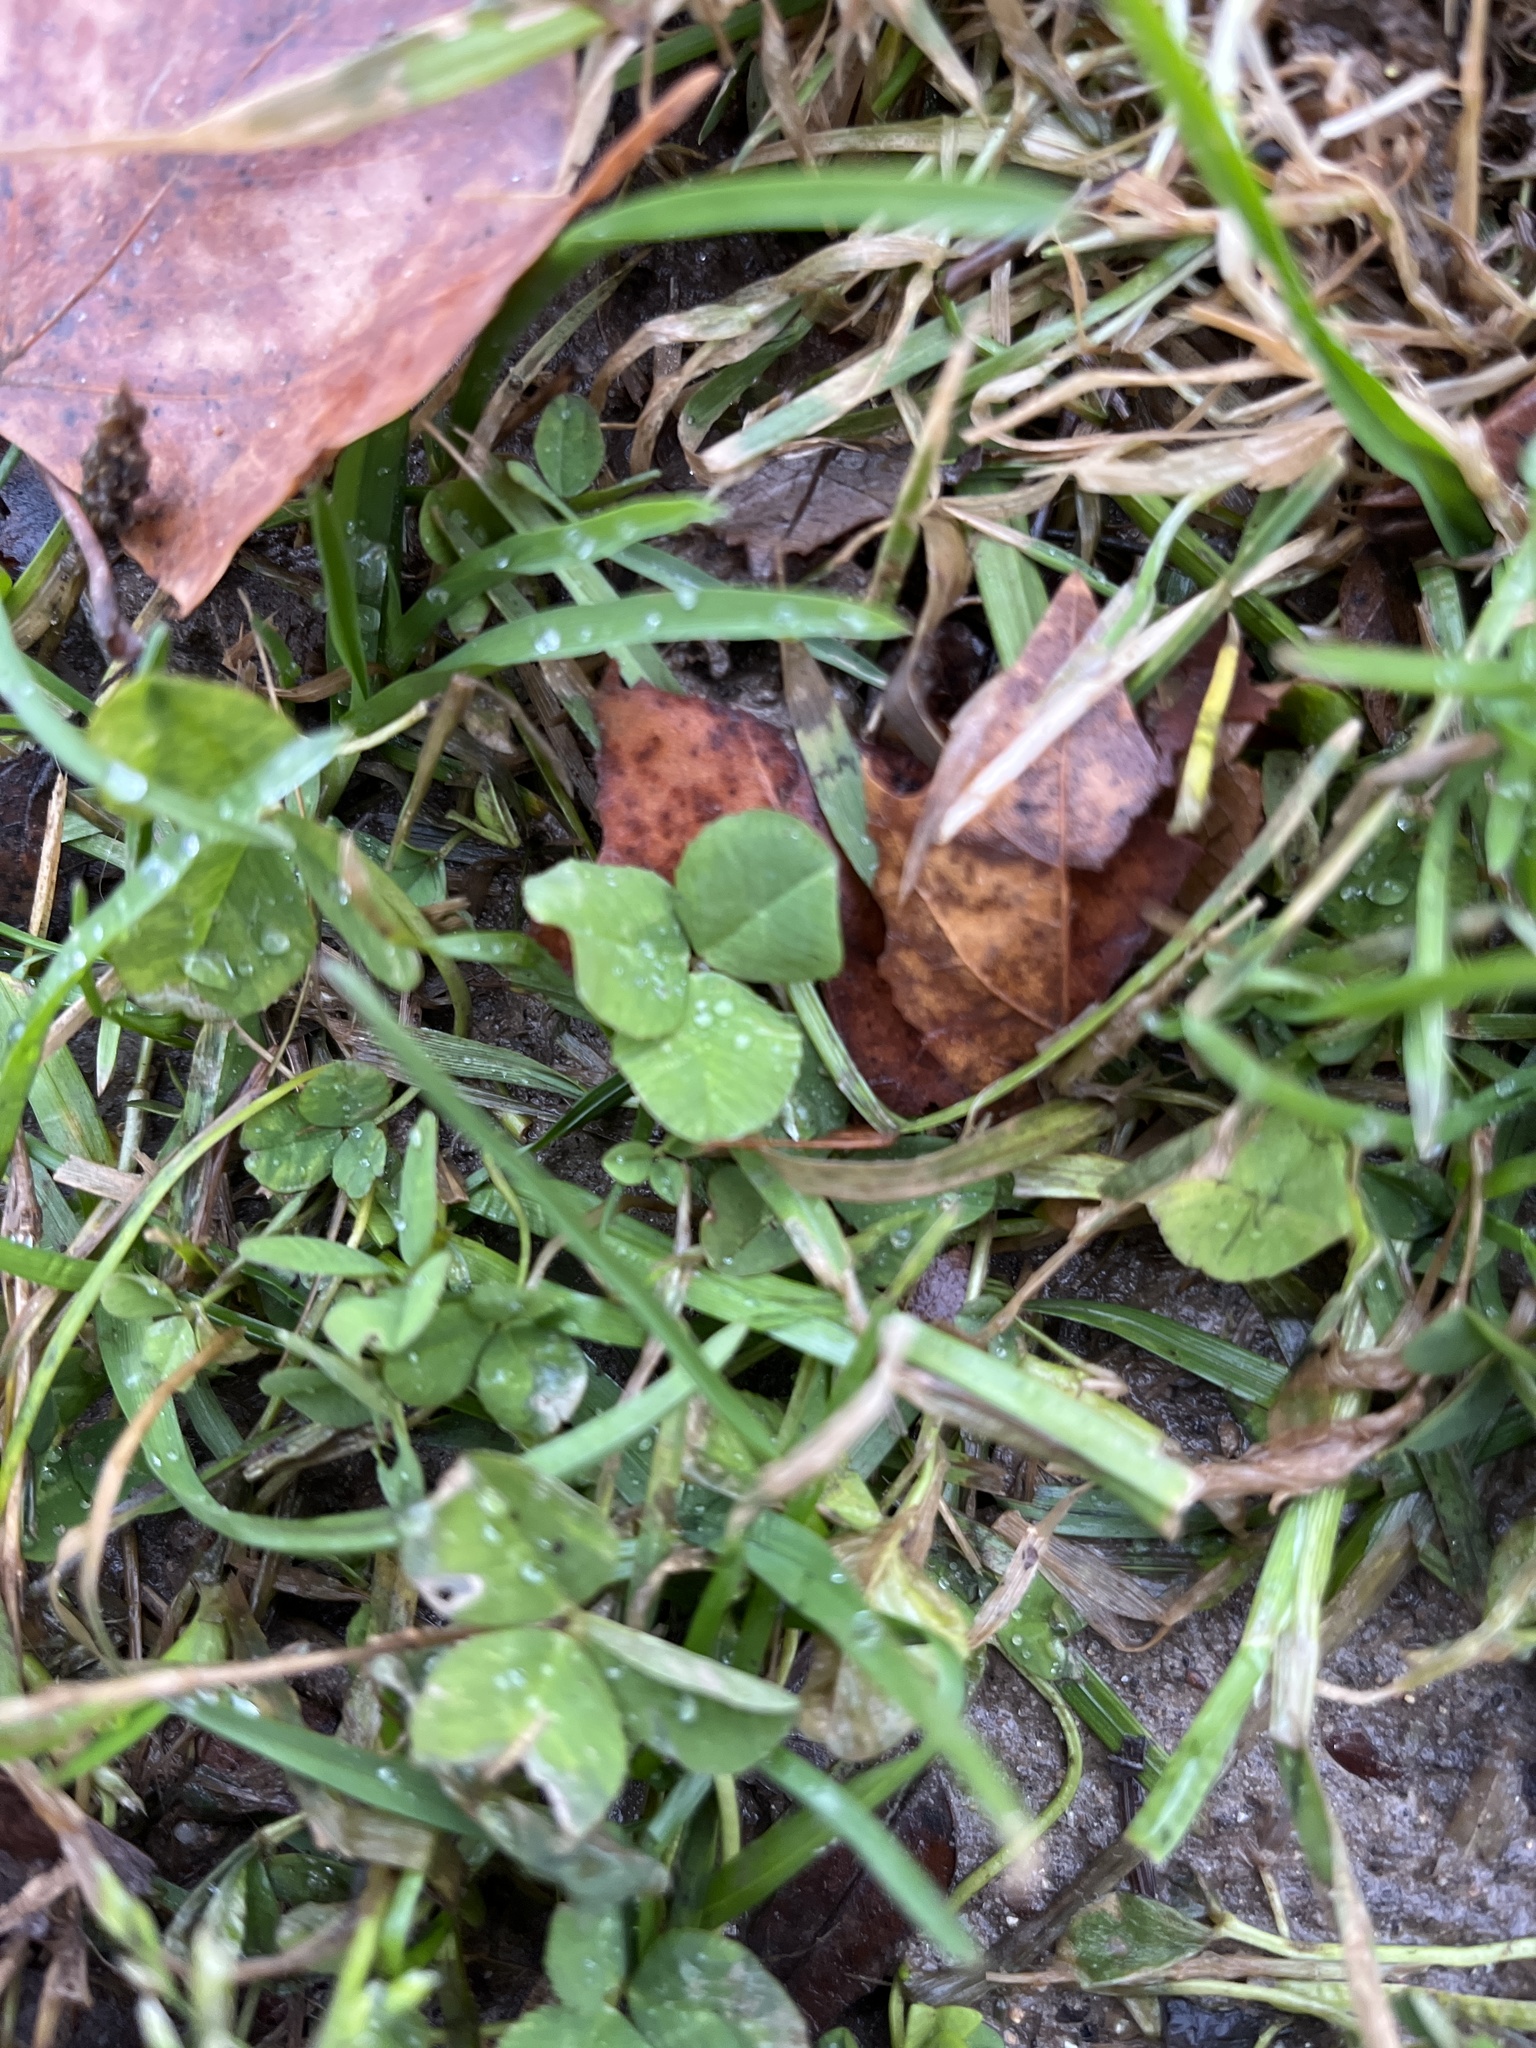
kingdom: Plantae
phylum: Tracheophyta
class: Magnoliopsida
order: Fabales
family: Fabaceae
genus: Trifolium
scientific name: Trifolium repens
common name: White clover
